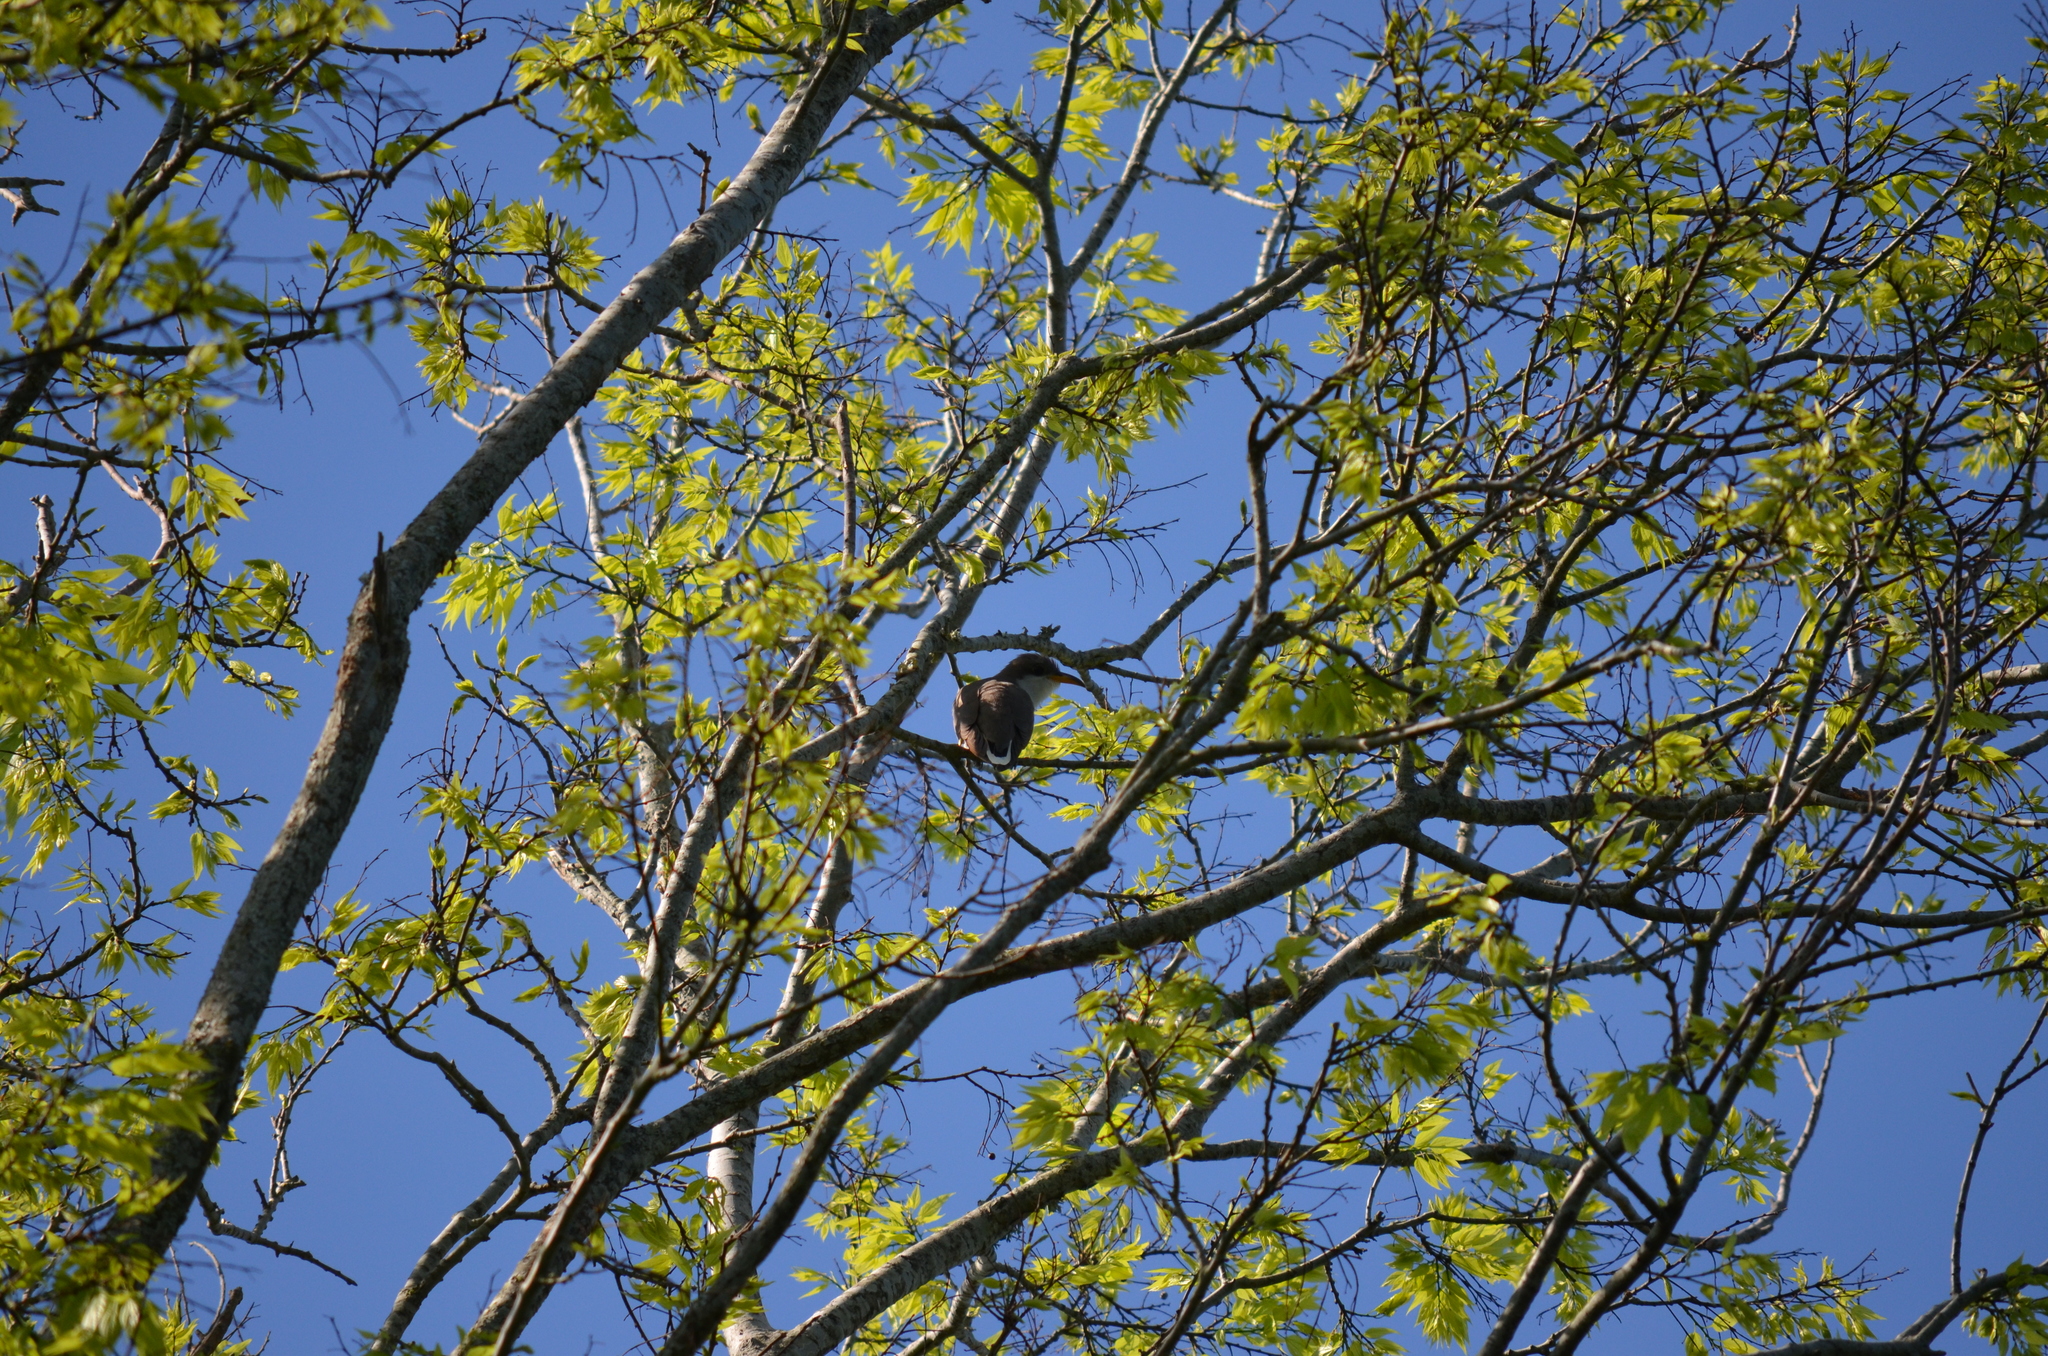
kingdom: Animalia
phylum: Chordata
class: Aves
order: Cuculiformes
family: Cuculidae
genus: Coccyzus
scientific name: Coccyzus americanus
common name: Yellow-billed cuckoo
